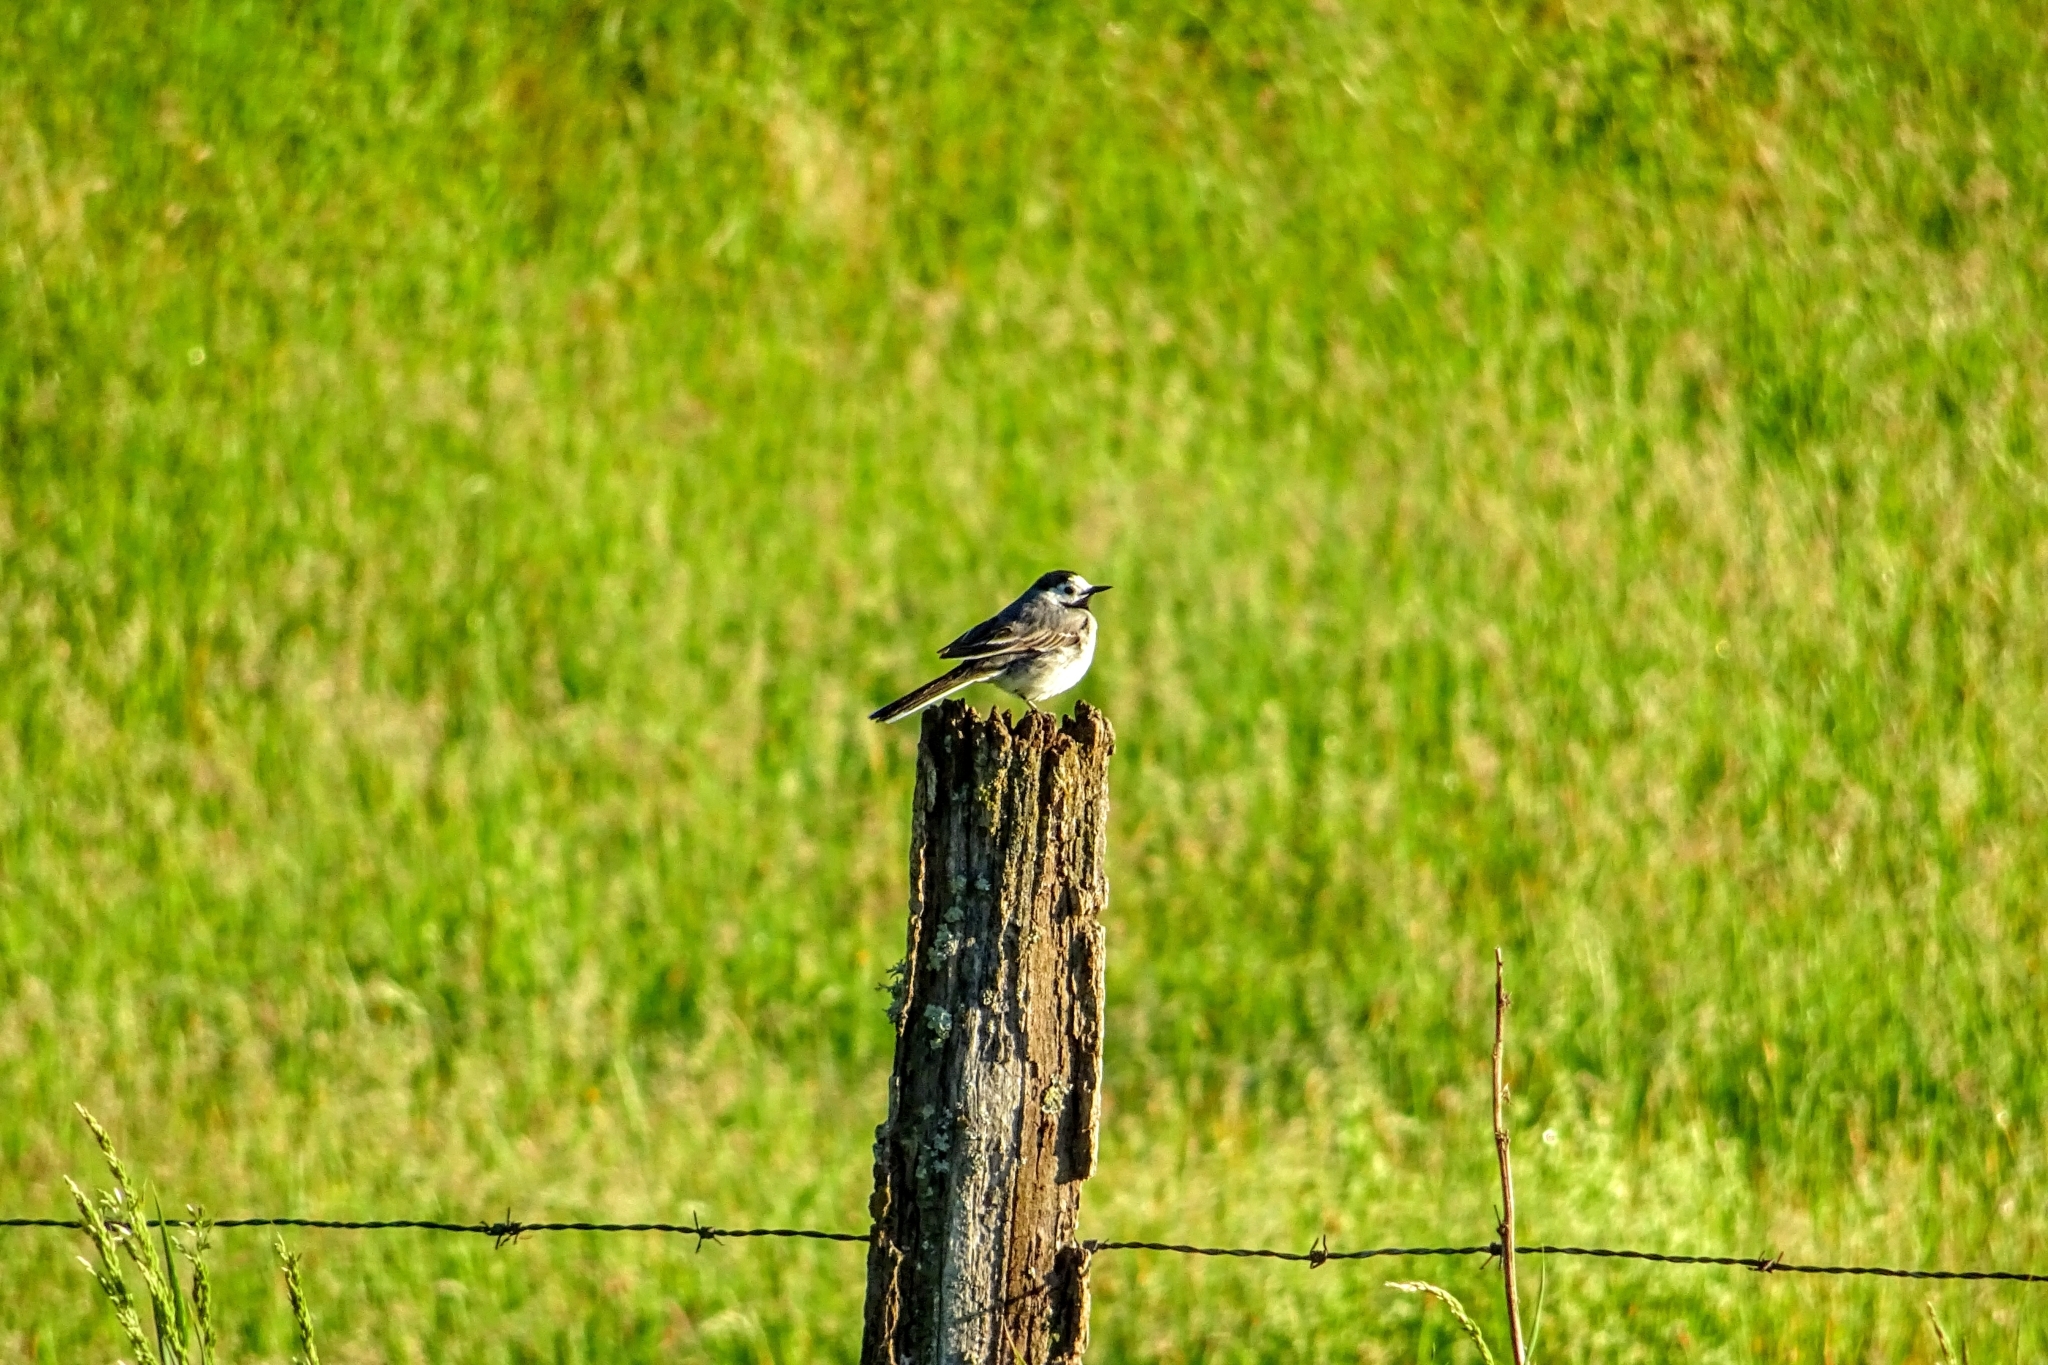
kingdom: Animalia
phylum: Chordata
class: Aves
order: Passeriformes
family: Motacillidae
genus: Motacilla
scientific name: Motacilla alba
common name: White wagtail
